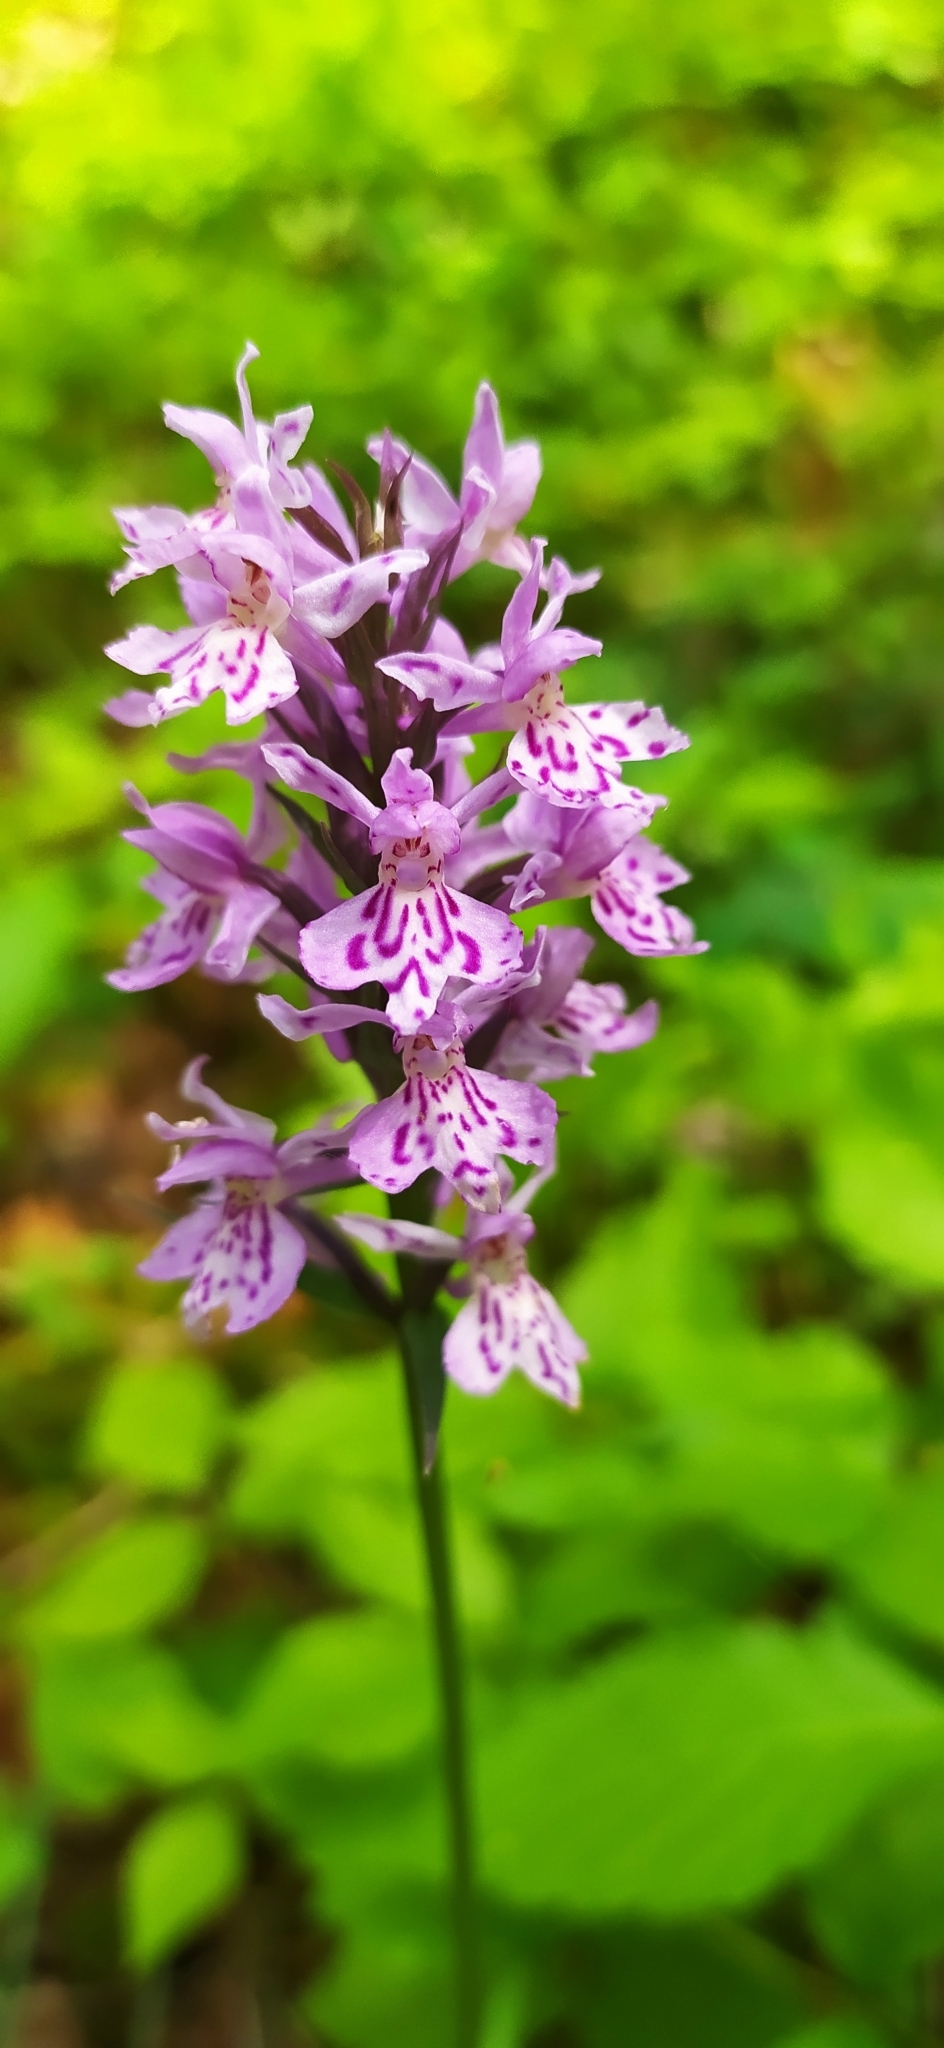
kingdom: Plantae
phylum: Tracheophyta
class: Liliopsida
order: Asparagales
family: Orchidaceae
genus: Dactylorhiza
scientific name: Dactylorhiza maculata
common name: Heath spotted-orchid
